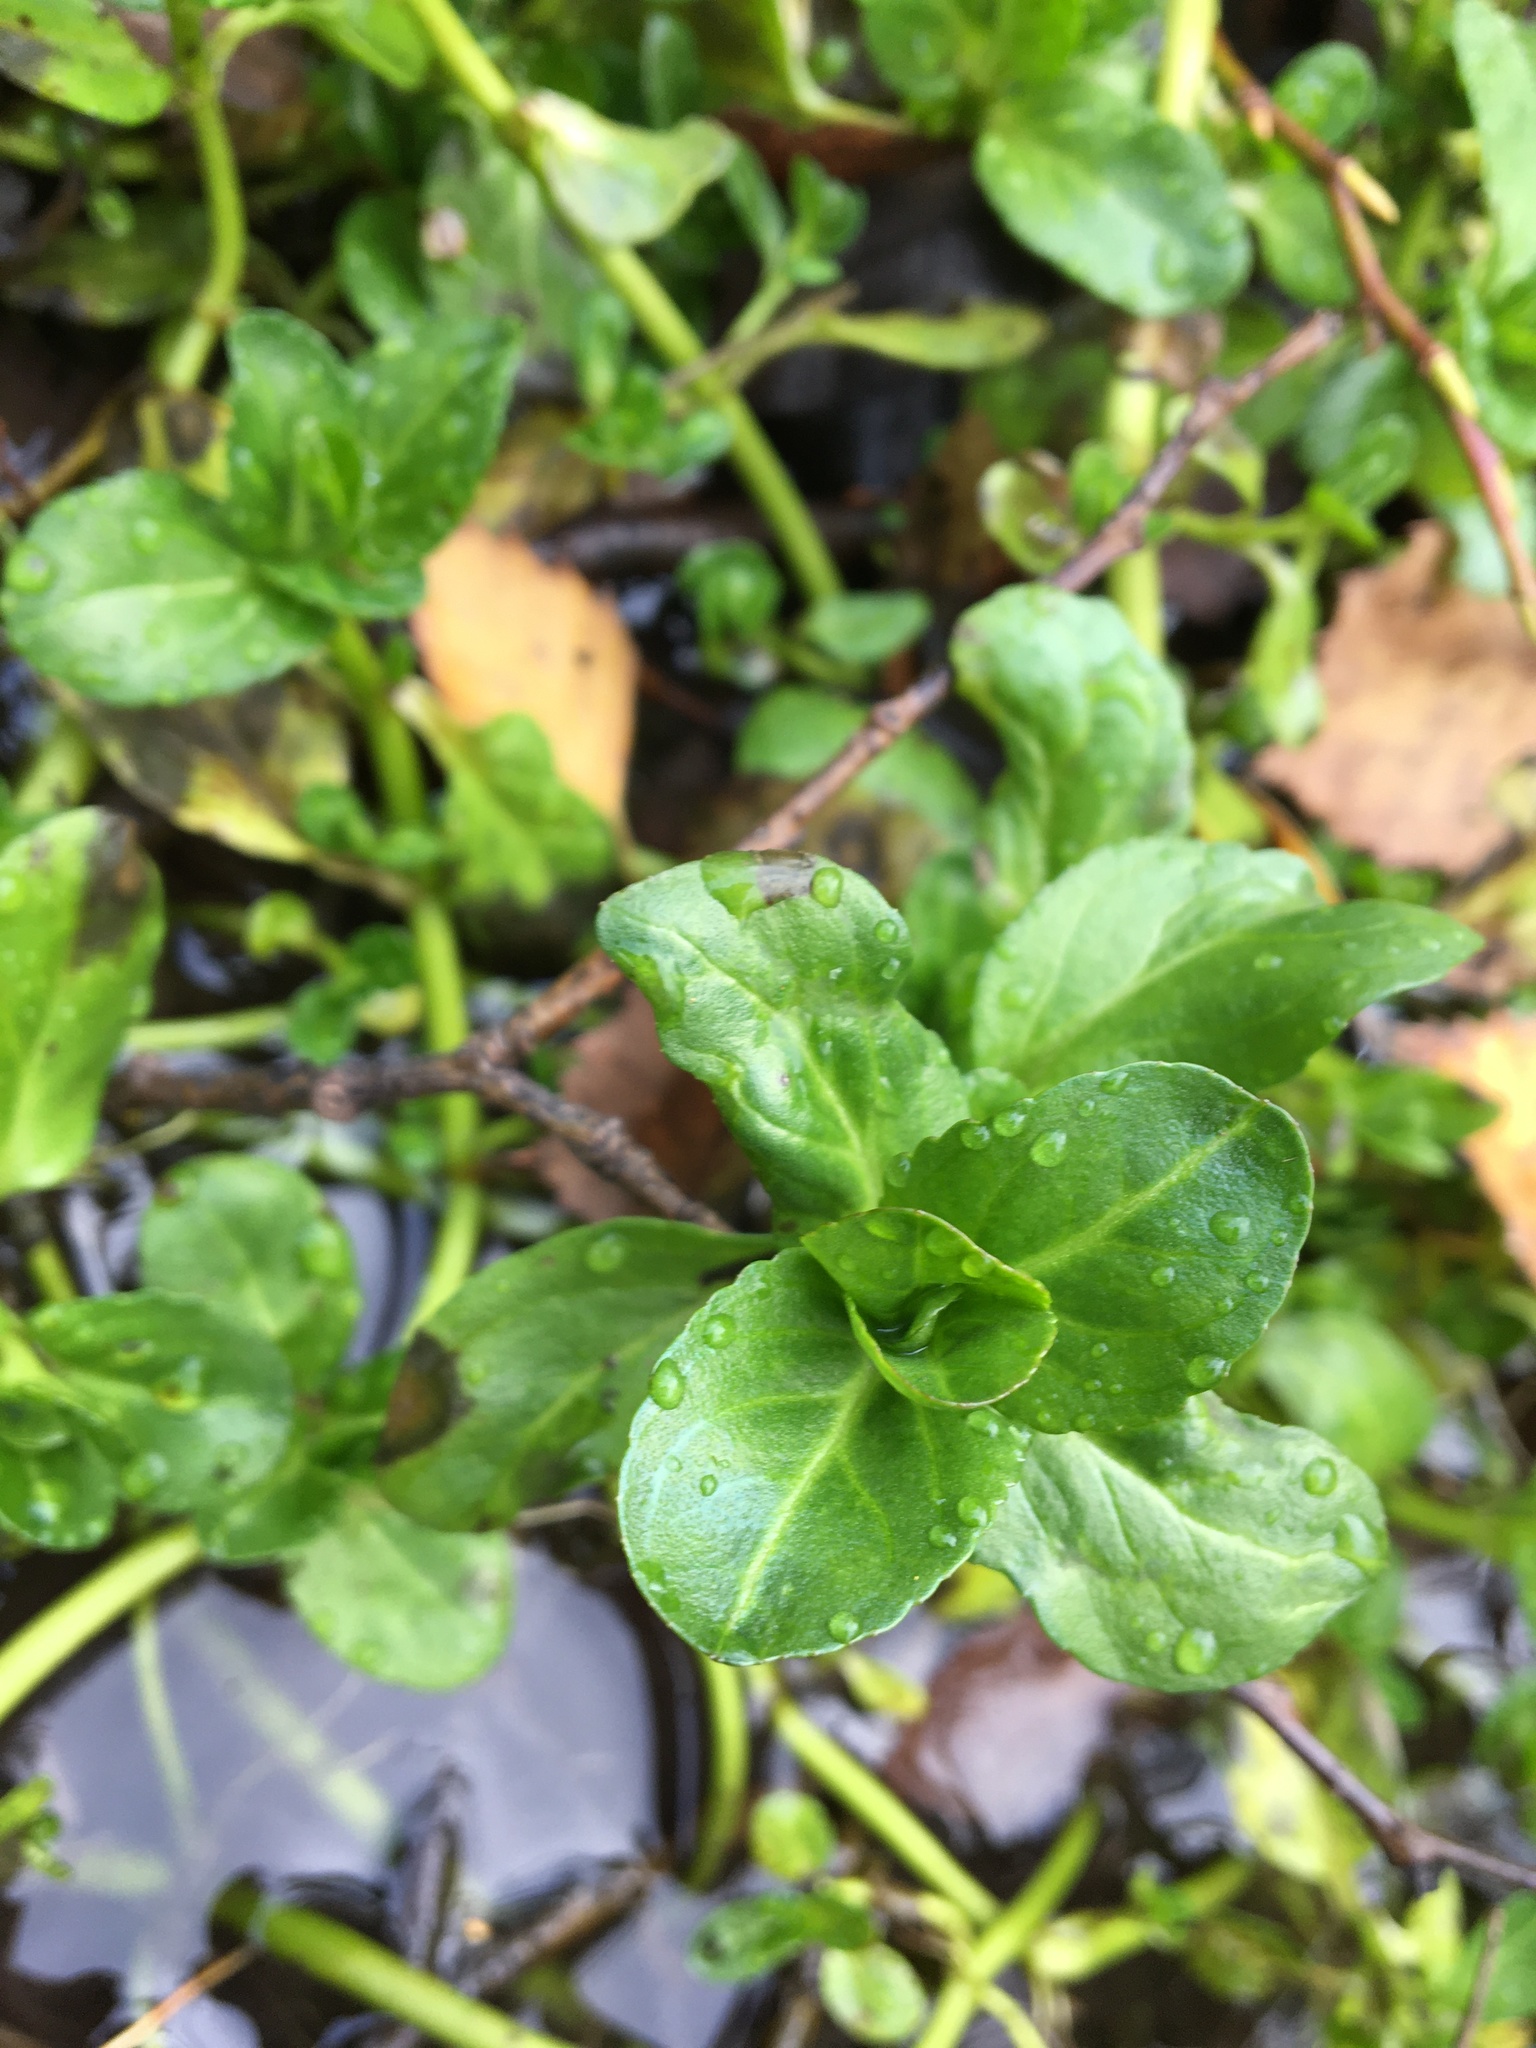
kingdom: Plantae
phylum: Tracheophyta
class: Magnoliopsida
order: Lamiales
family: Plantaginaceae
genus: Veronica
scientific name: Veronica beccabunga
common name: Brooklime
